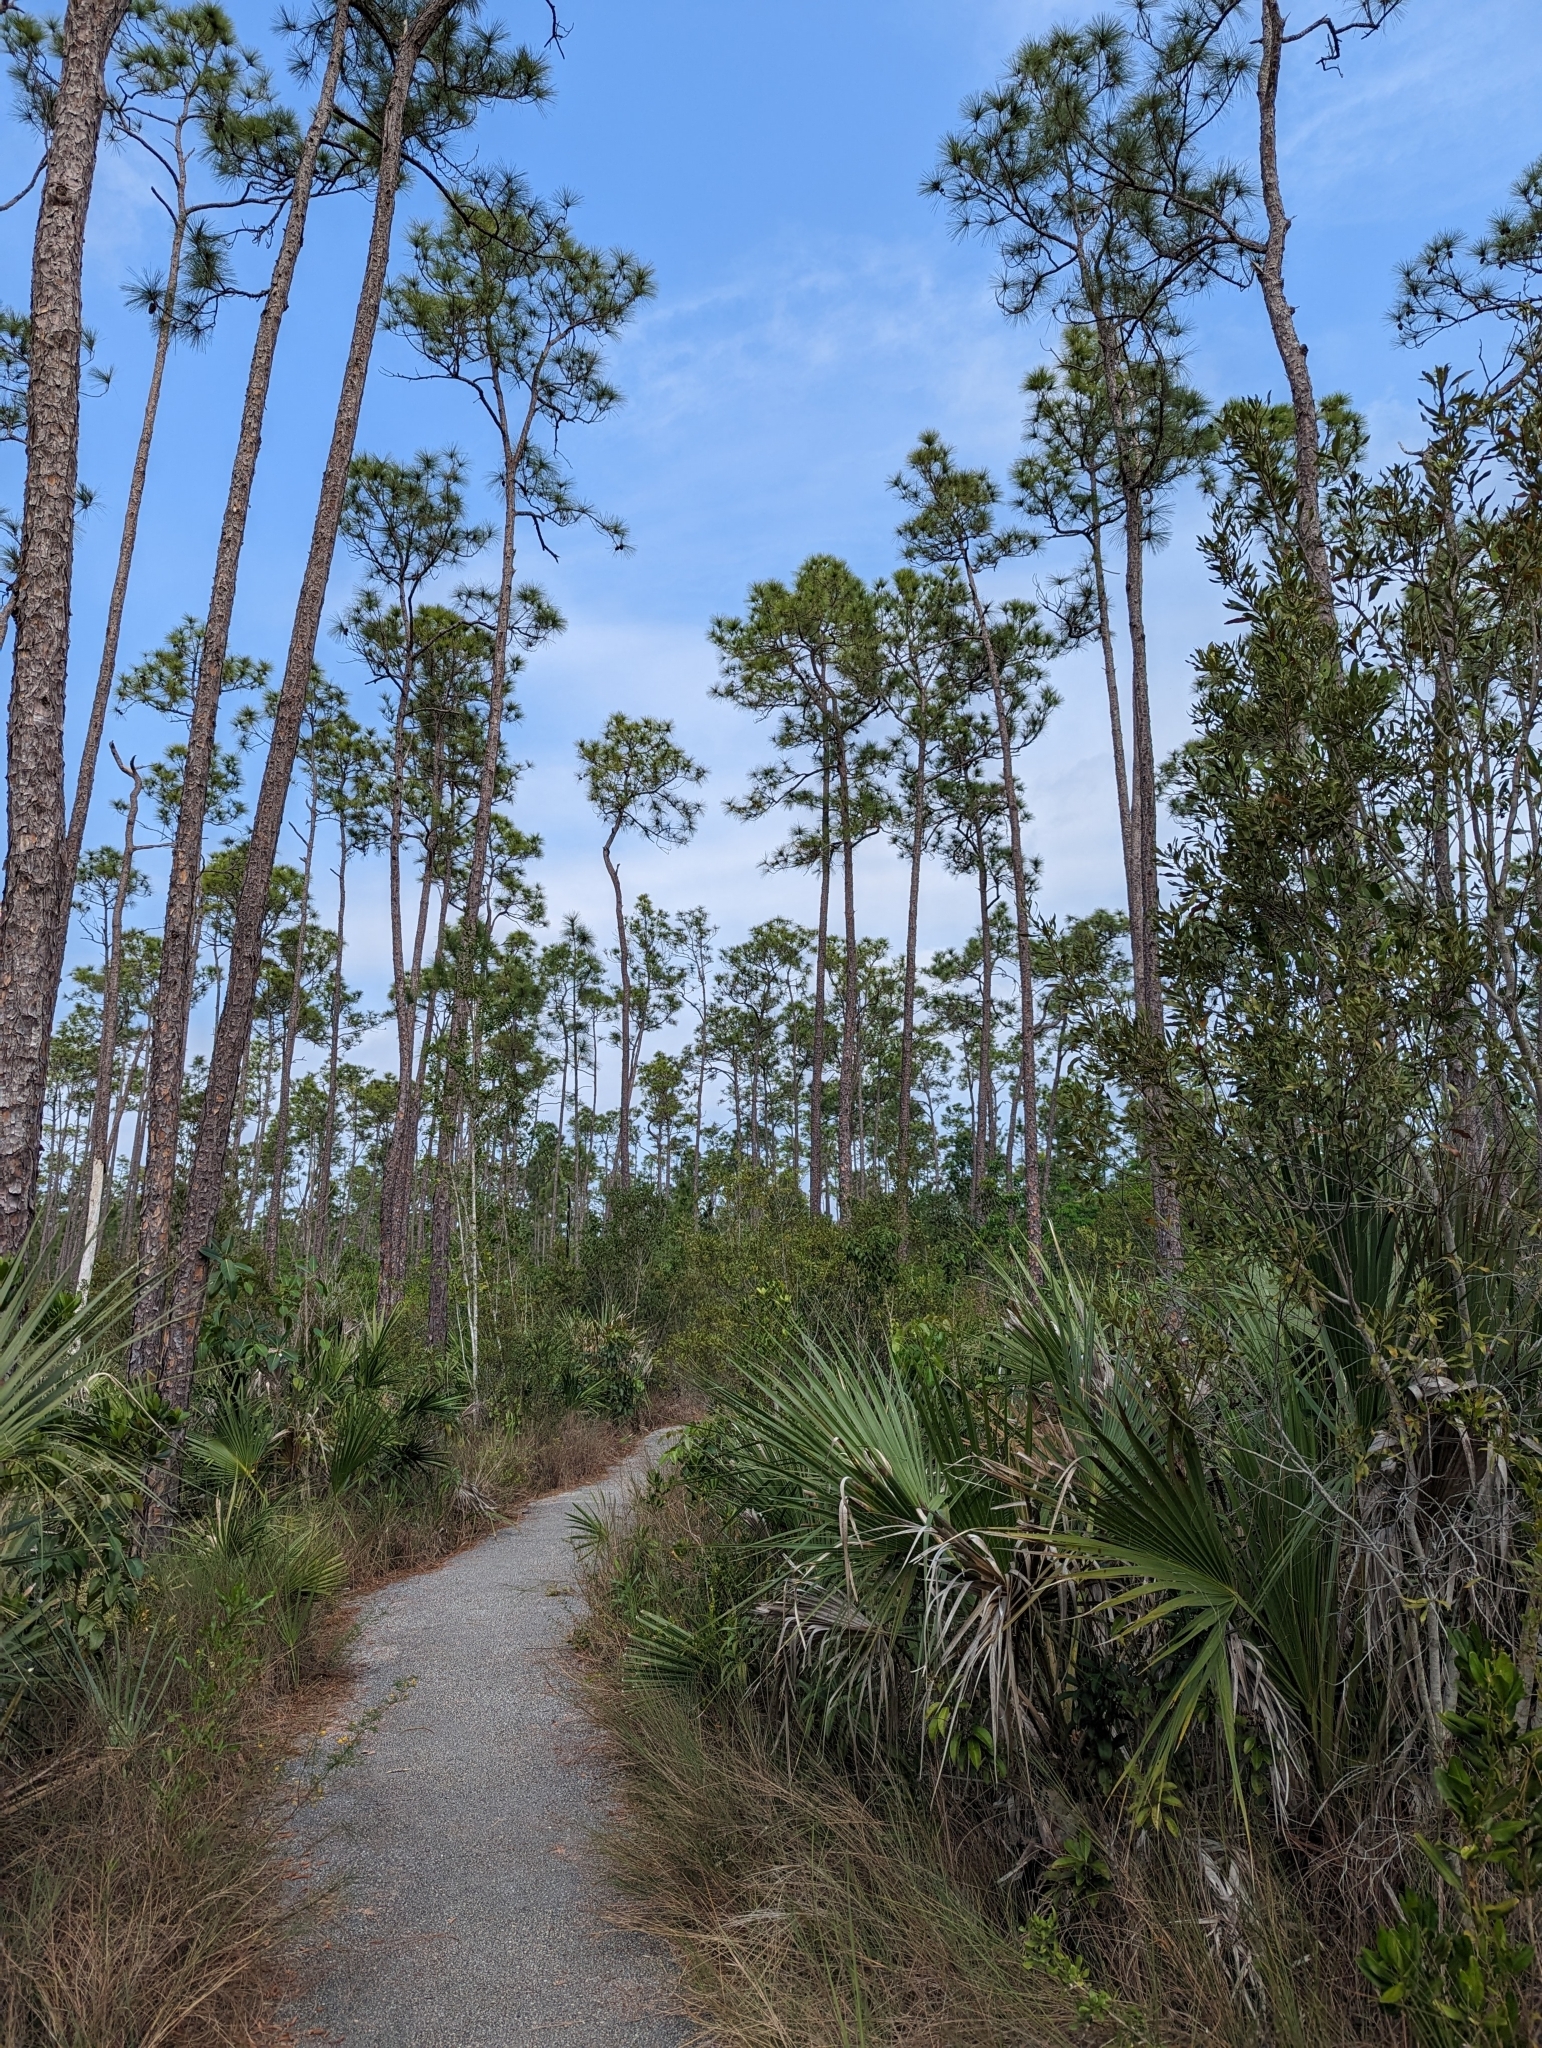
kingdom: Plantae
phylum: Tracheophyta
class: Liliopsida
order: Arecales
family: Arecaceae
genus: Sabal
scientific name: Sabal palmetto
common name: Blue palmetto
